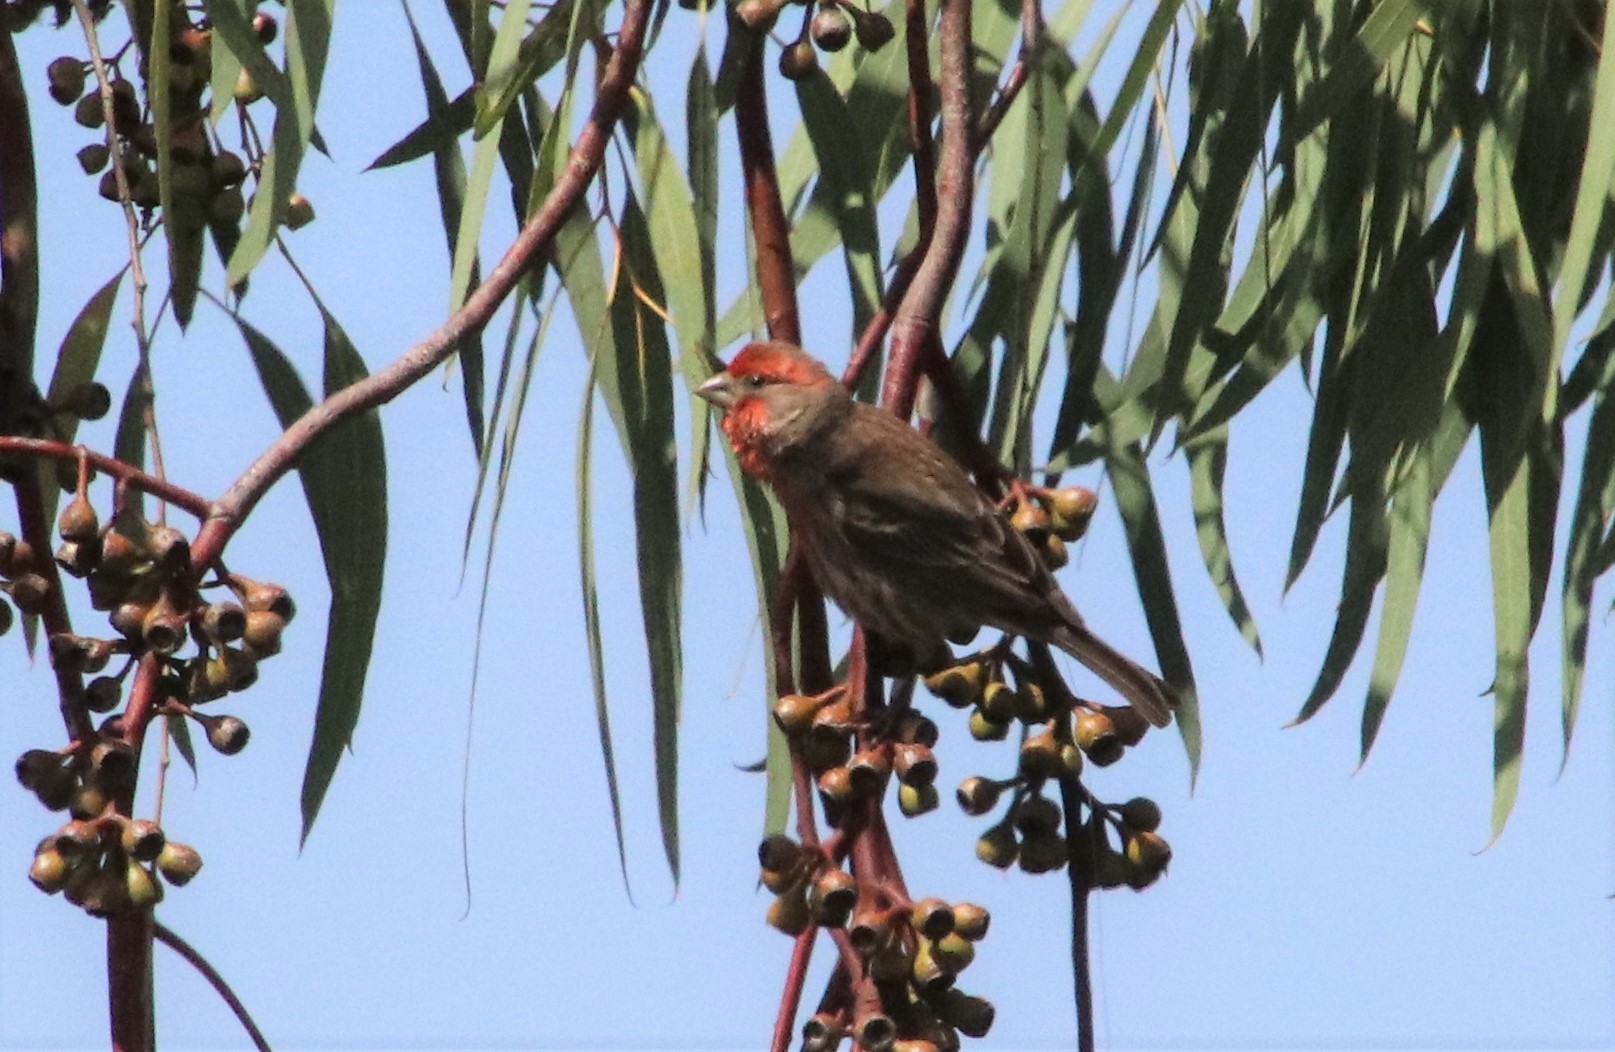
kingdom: Animalia
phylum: Chordata
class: Aves
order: Passeriformes
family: Fringillidae
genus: Haemorhous
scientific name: Haemorhous mexicanus
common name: House finch
